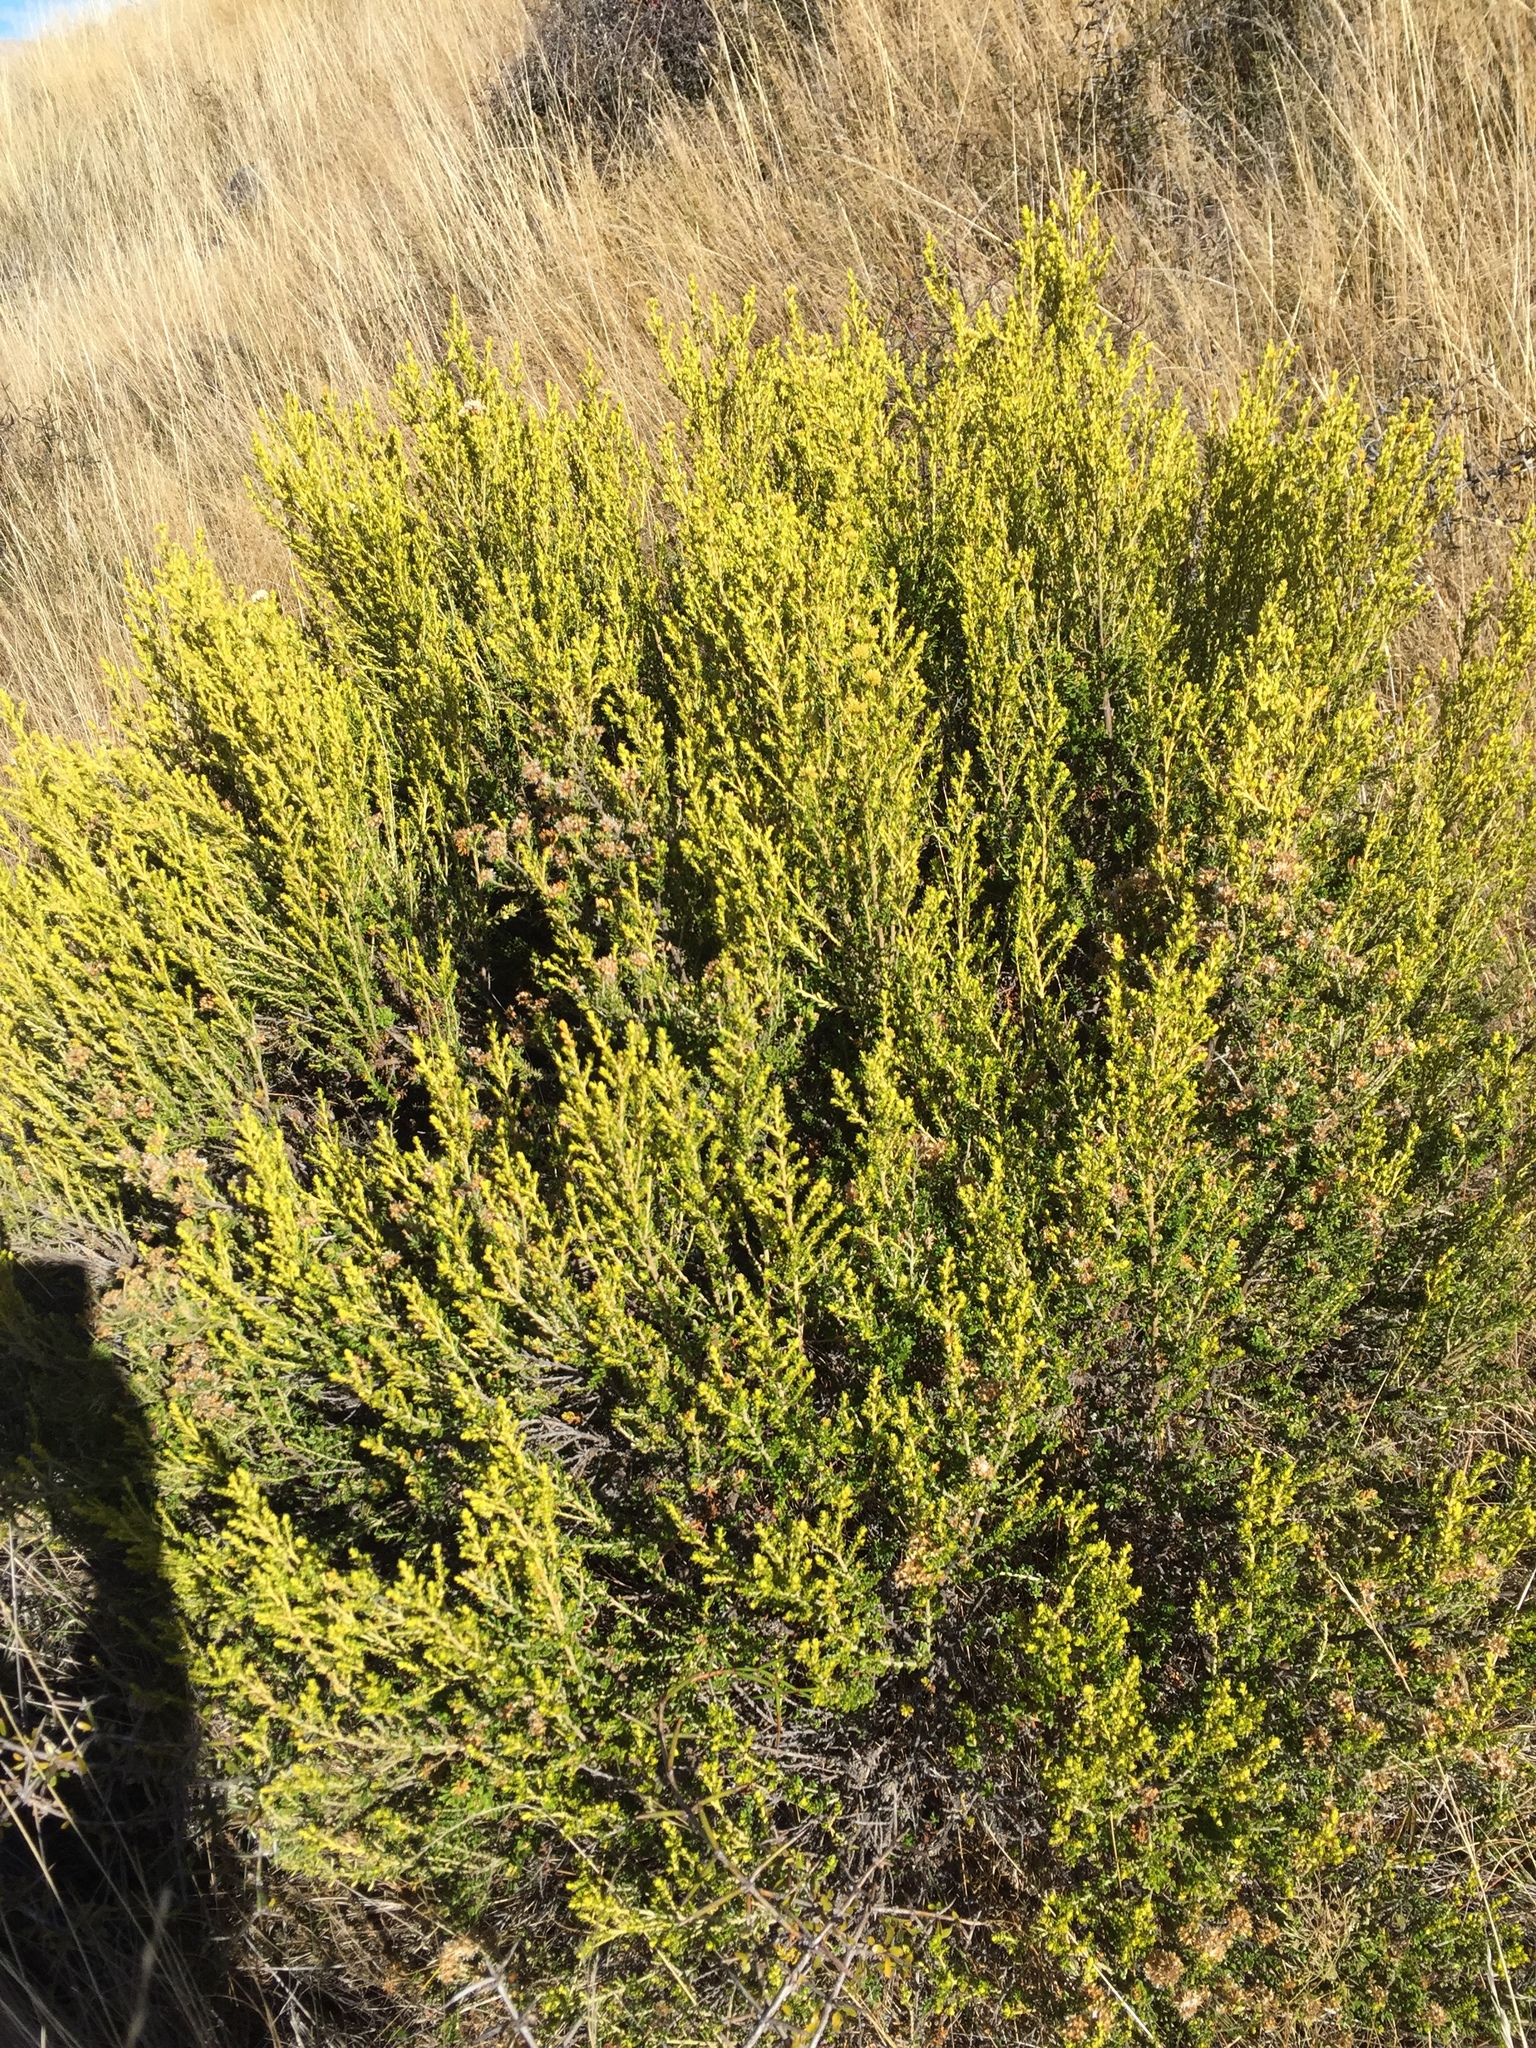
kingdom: Plantae
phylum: Tracheophyta
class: Magnoliopsida
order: Asterales
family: Asteraceae
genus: Ozothamnus
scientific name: Ozothamnus leptophyllus
